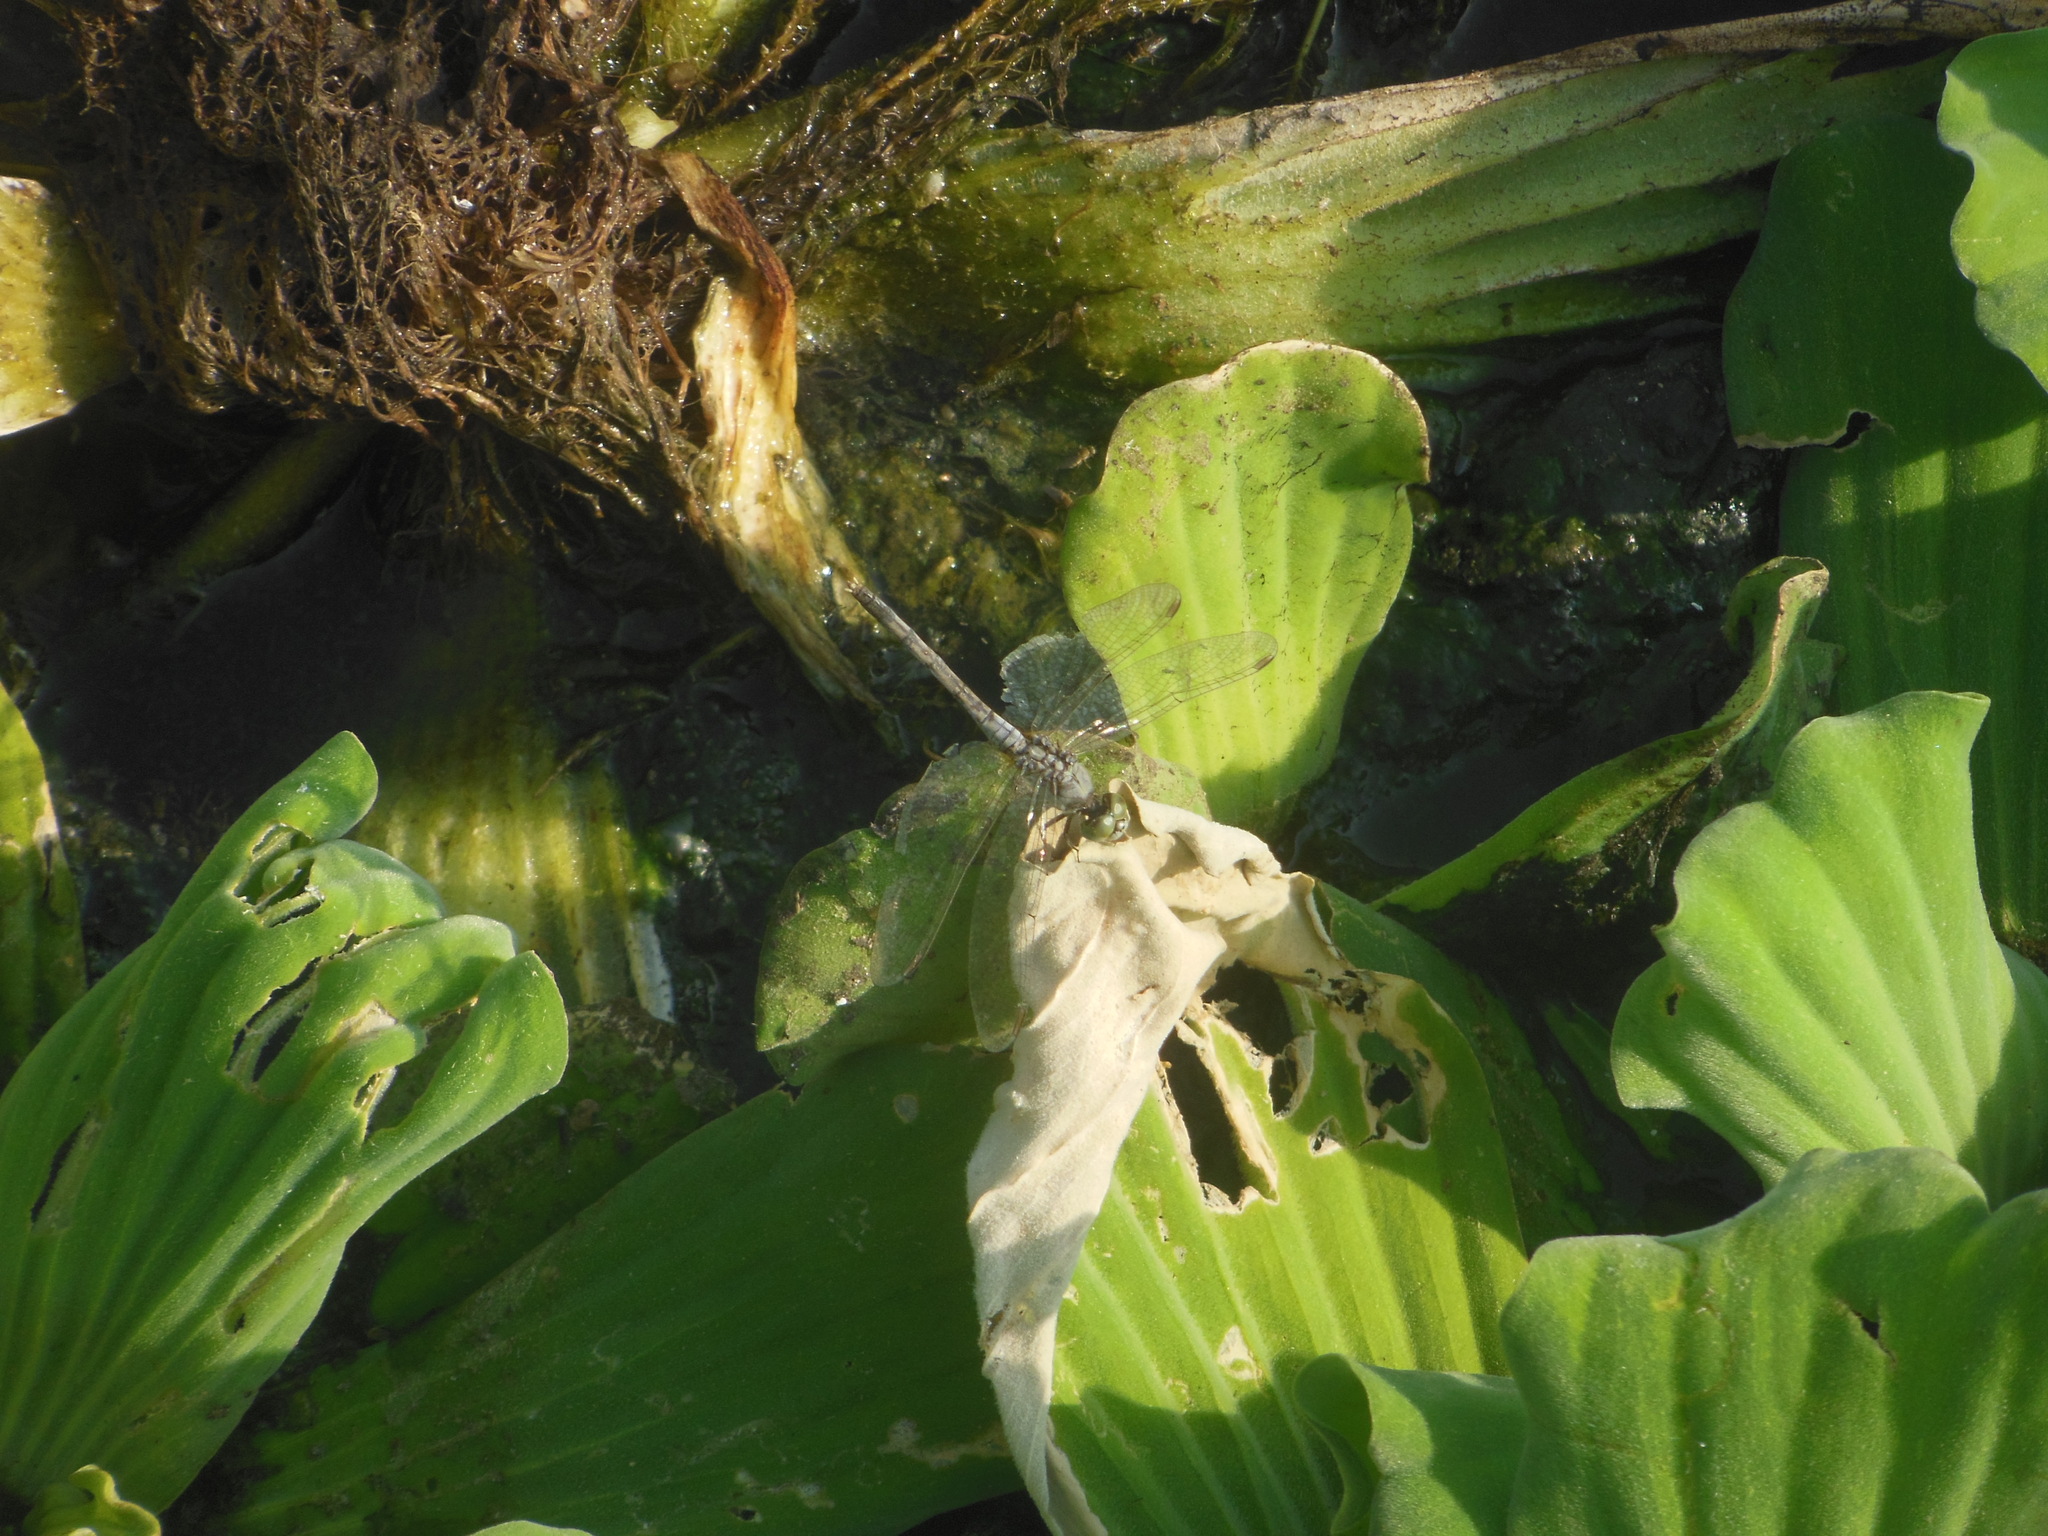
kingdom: Animalia
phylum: Arthropoda
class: Insecta
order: Odonata
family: Libellulidae
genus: Diplacodes
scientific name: Diplacodes trivialis
